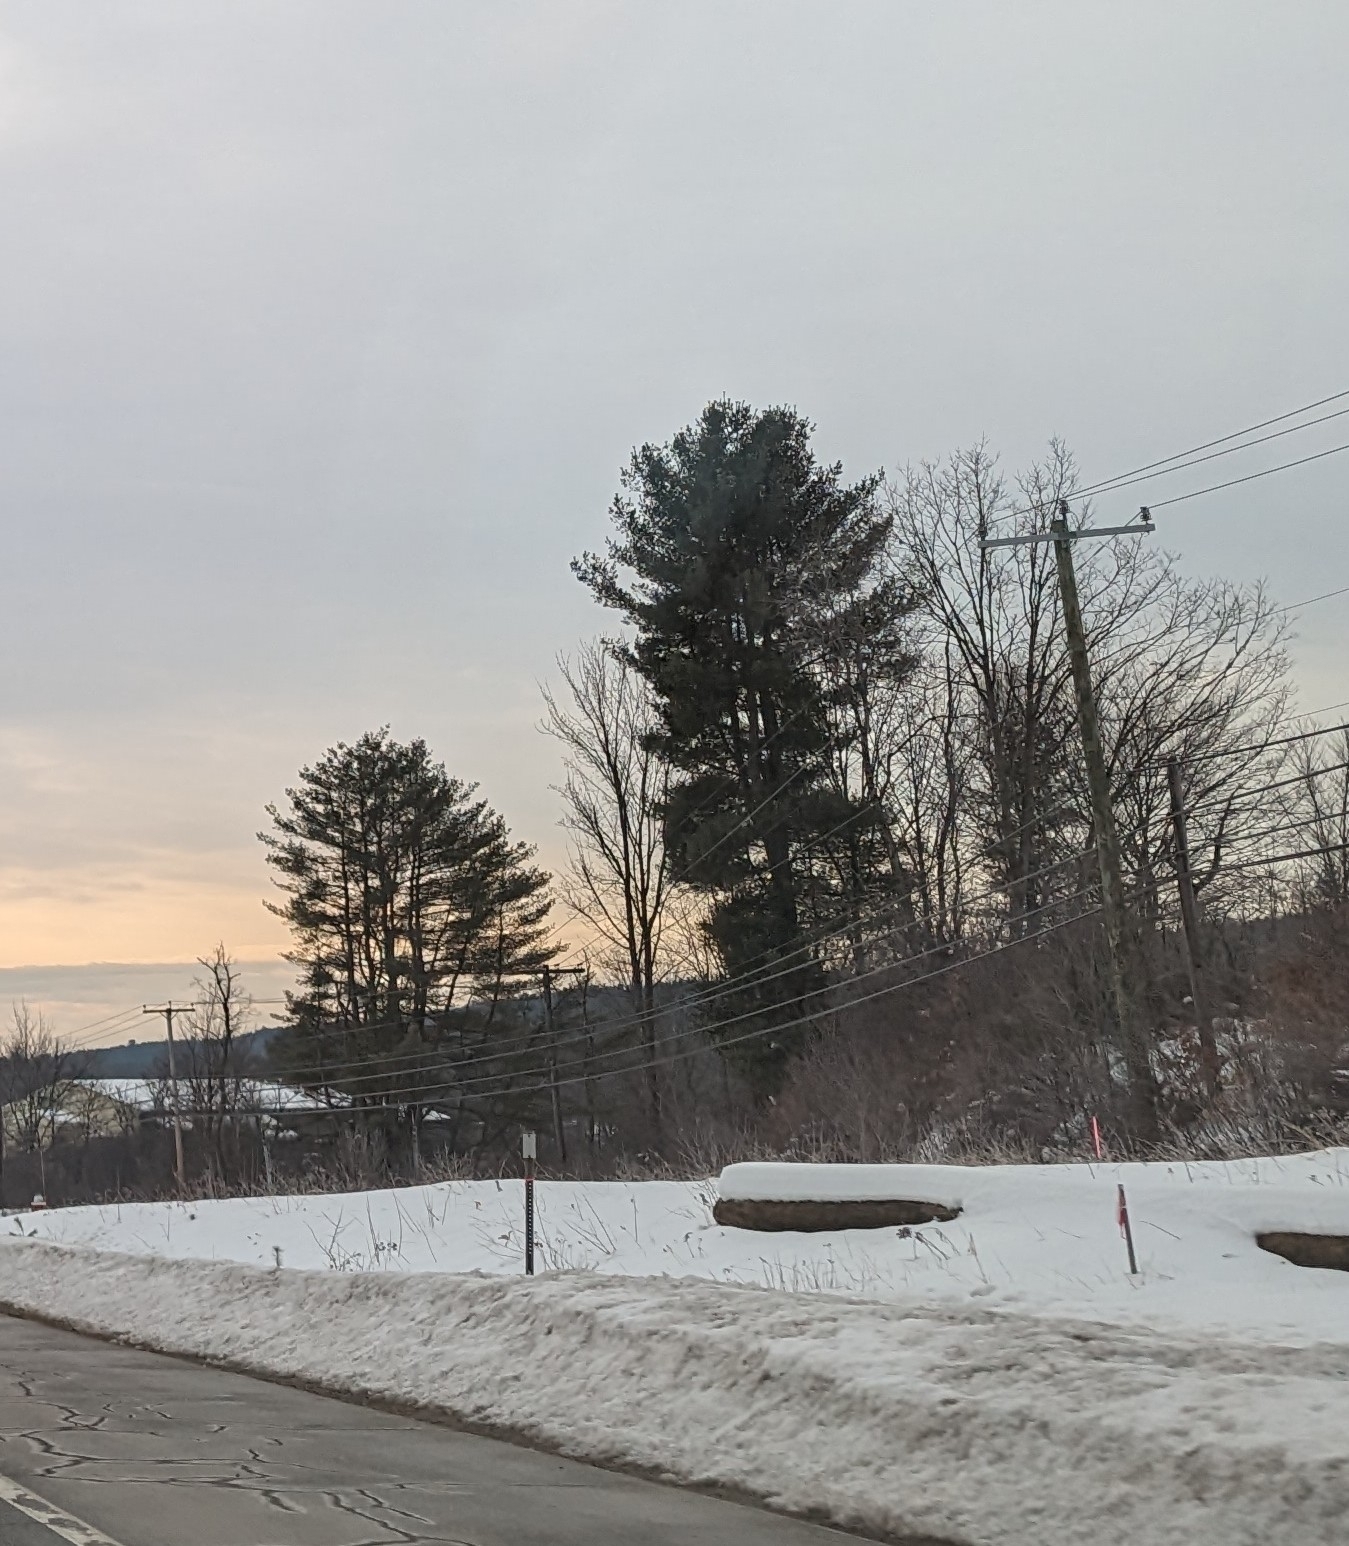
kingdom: Plantae
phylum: Tracheophyta
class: Pinopsida
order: Pinales
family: Pinaceae
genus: Pinus
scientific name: Pinus strobus
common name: Weymouth pine
